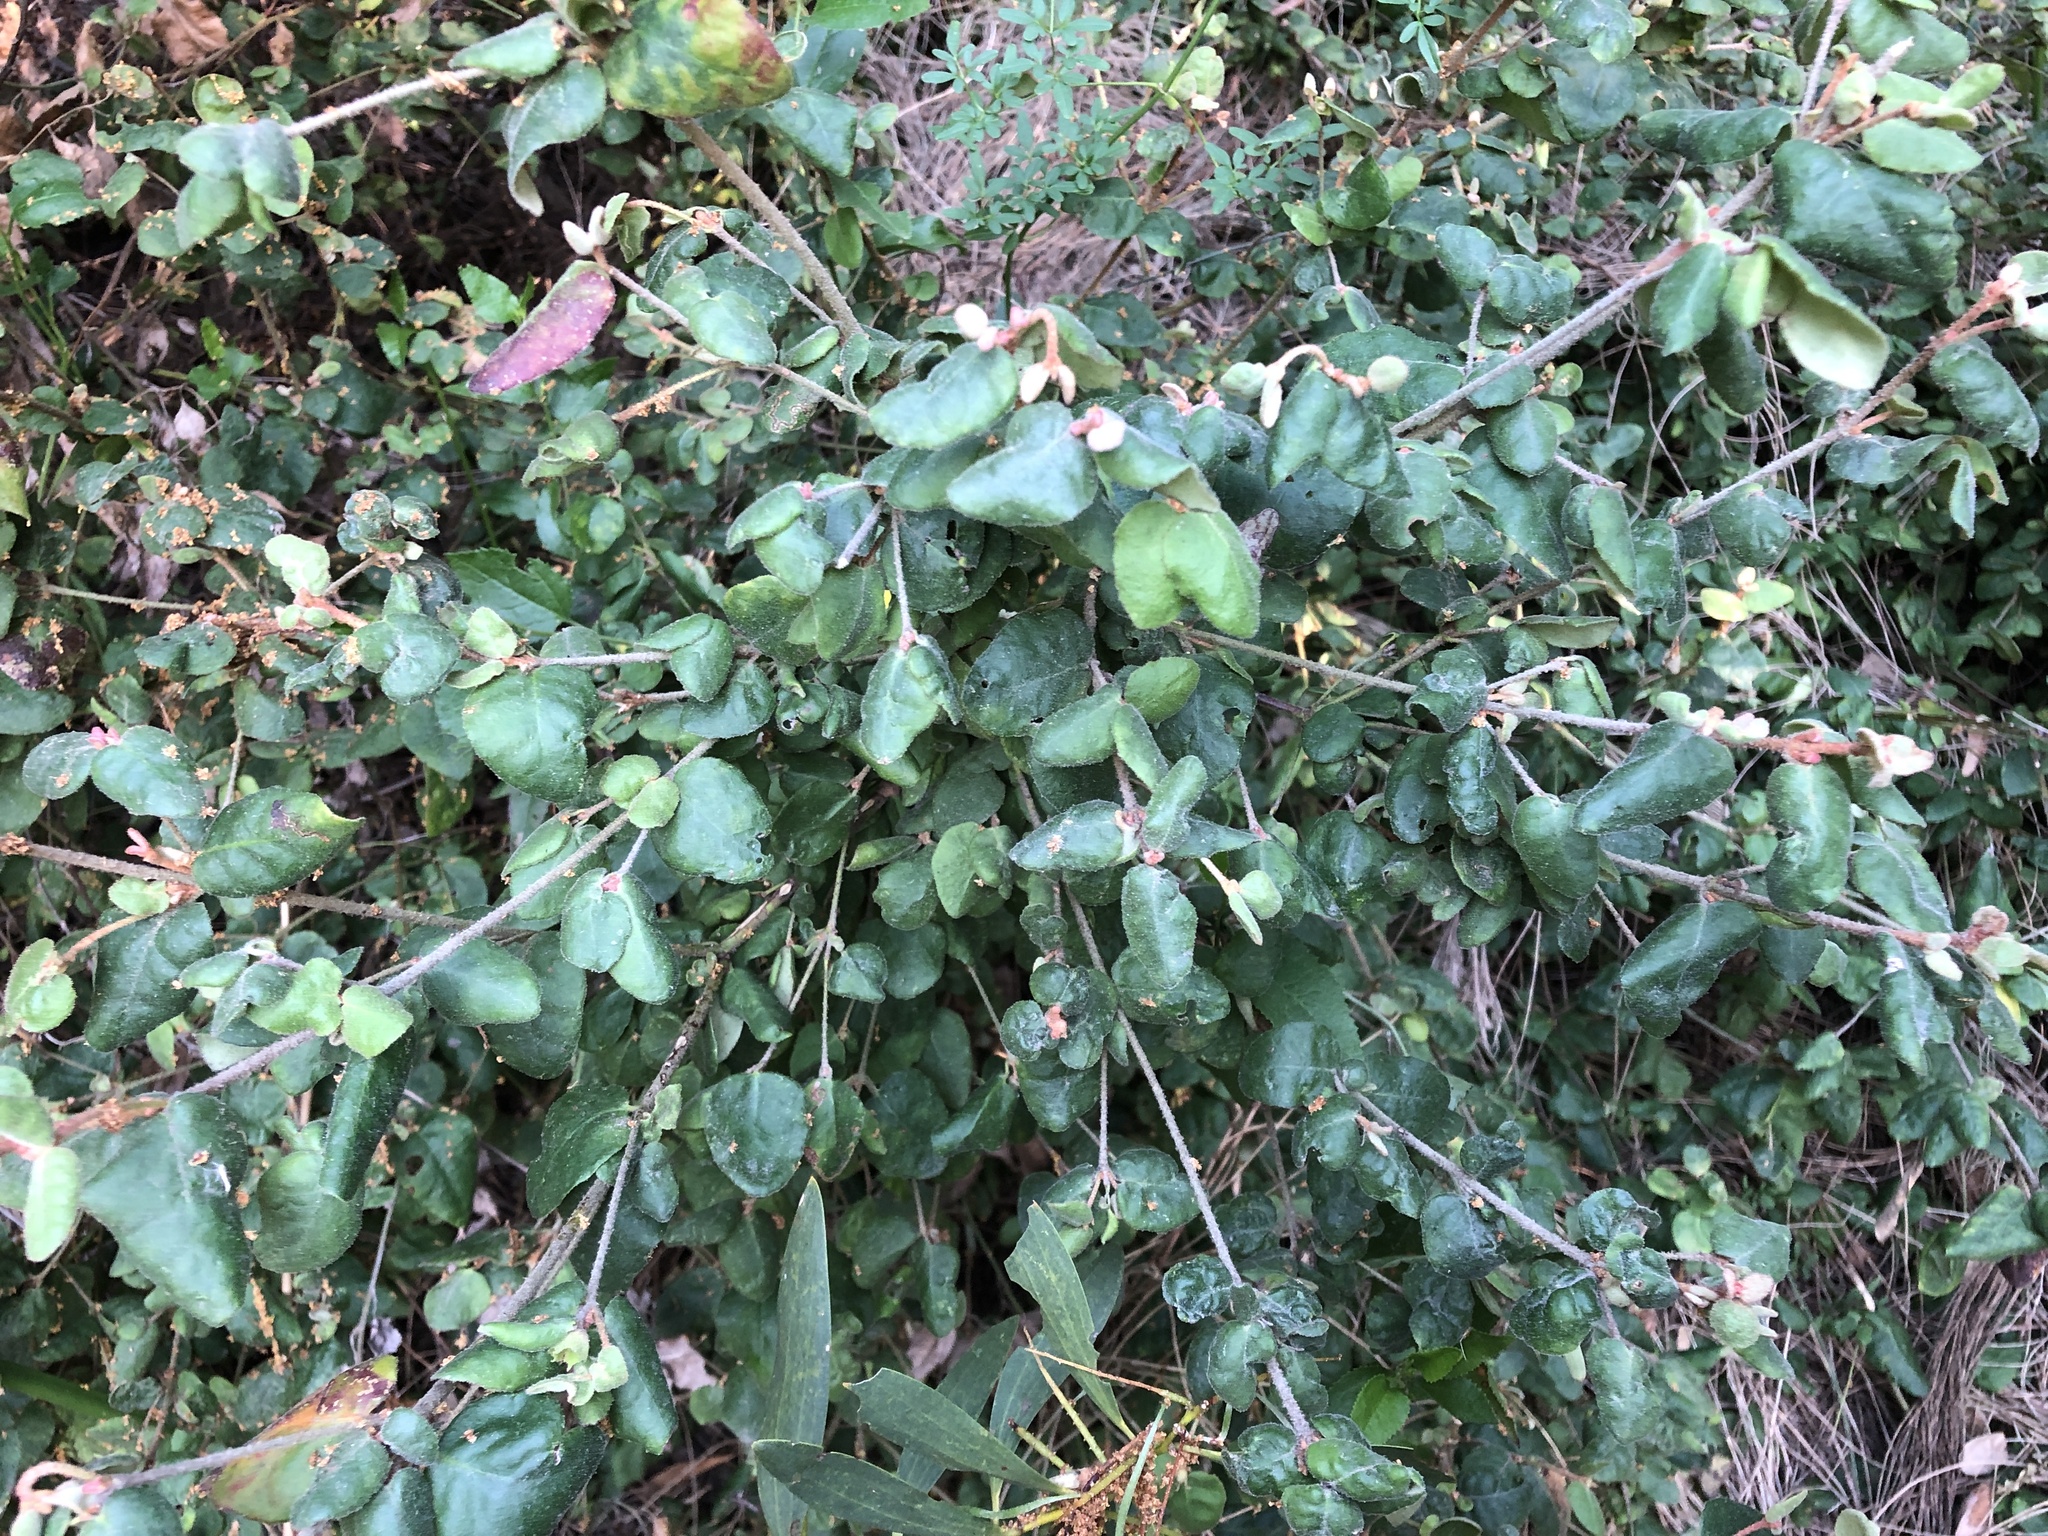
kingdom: Plantae
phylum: Tracheophyta
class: Magnoliopsida
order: Sapindales
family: Rutaceae
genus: Correa
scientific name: Correa reflexa
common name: Common correa
